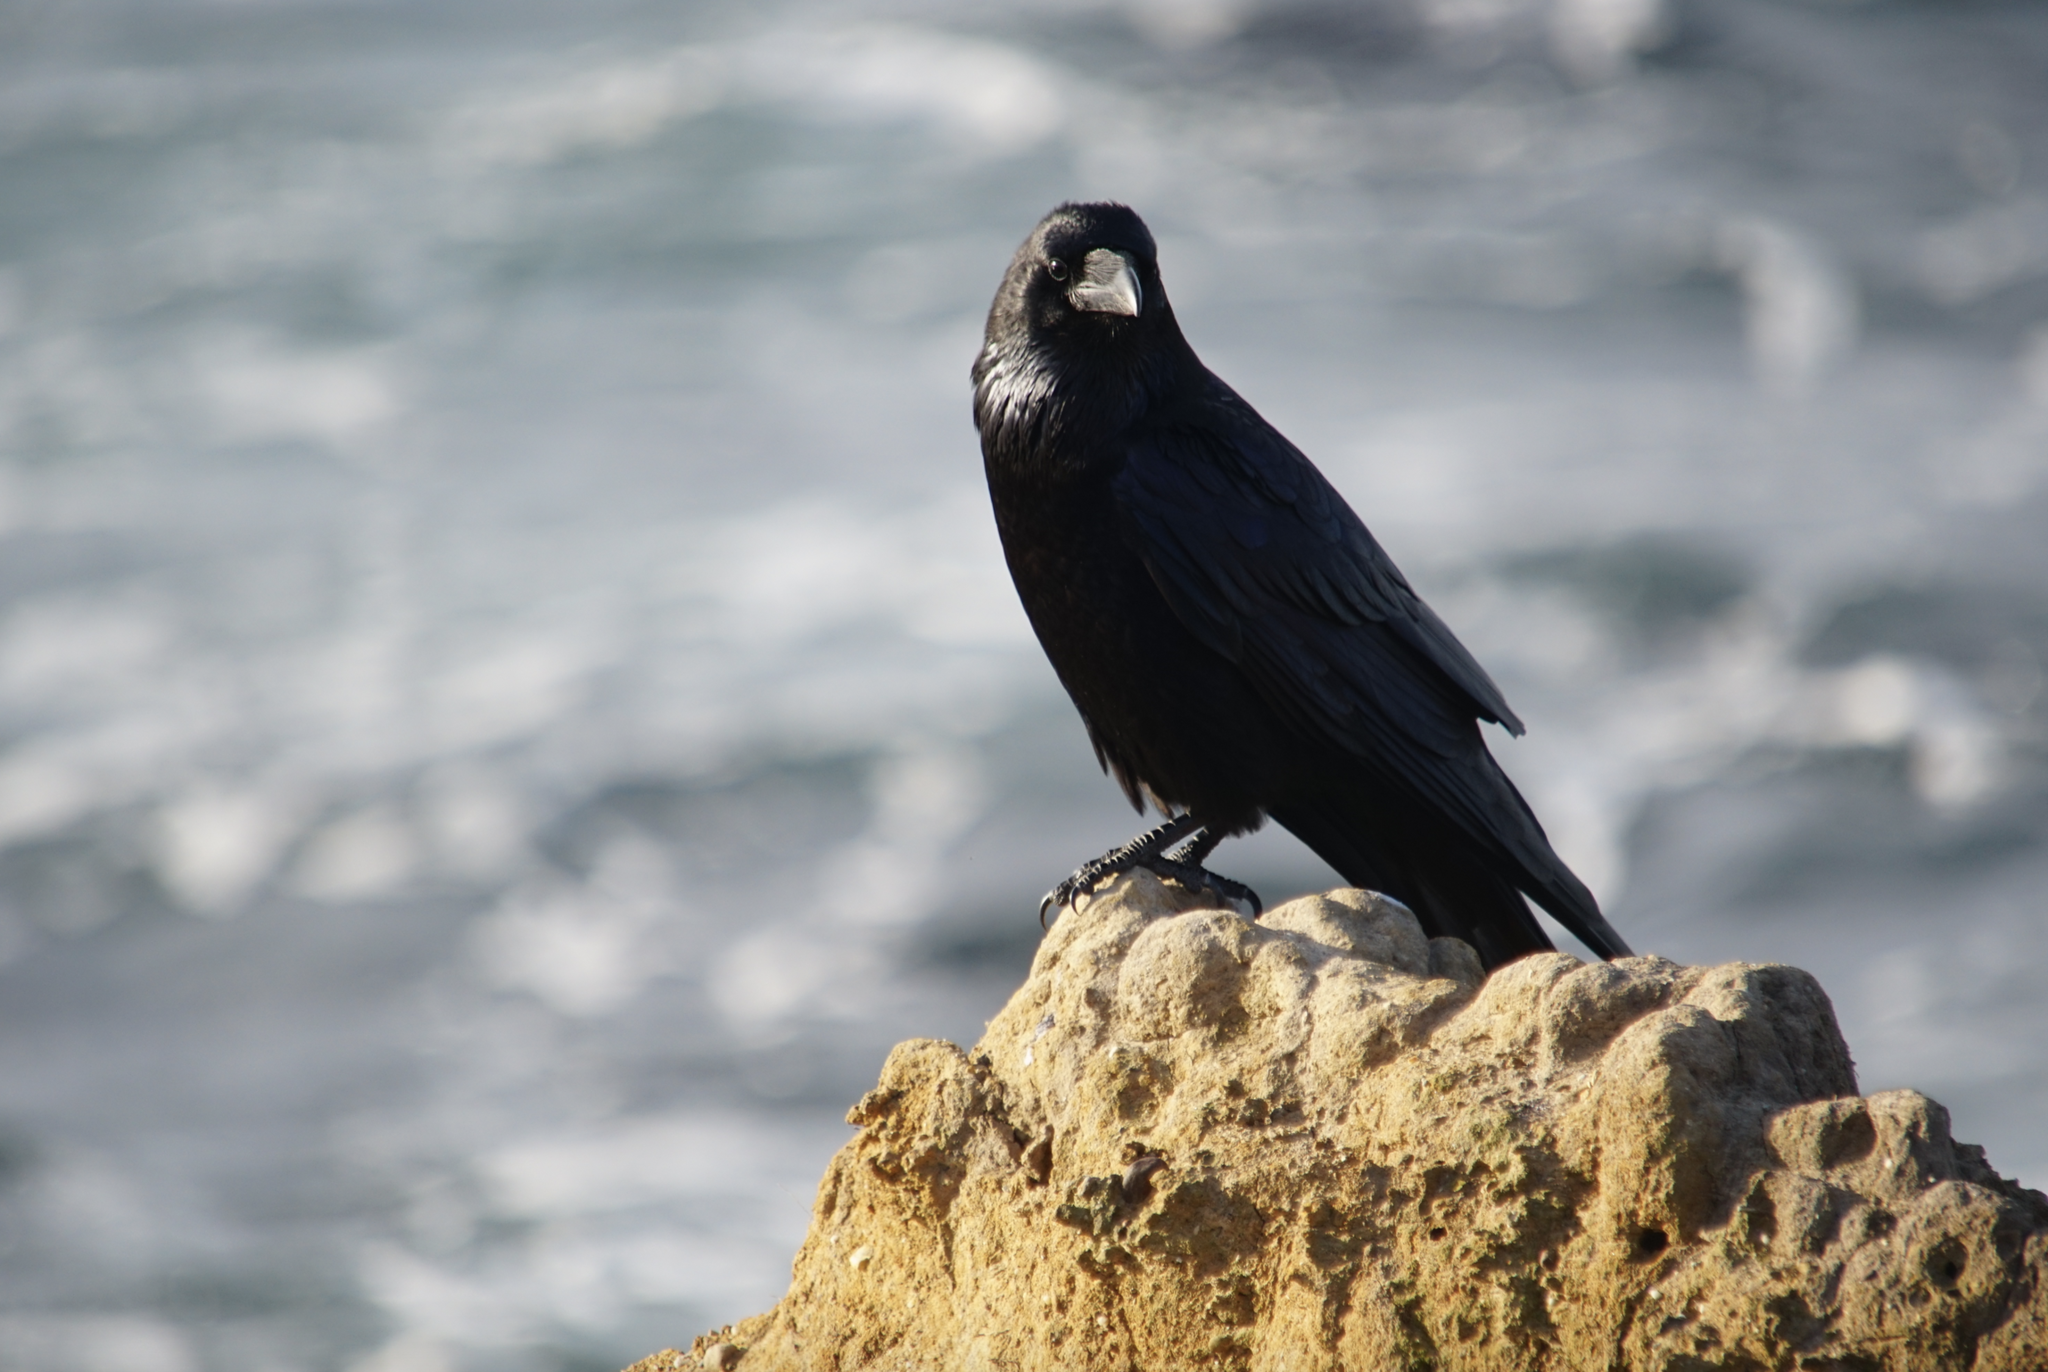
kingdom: Animalia
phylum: Chordata
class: Aves
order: Passeriformes
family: Corvidae
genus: Corvus
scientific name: Corvus corax
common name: Common raven
